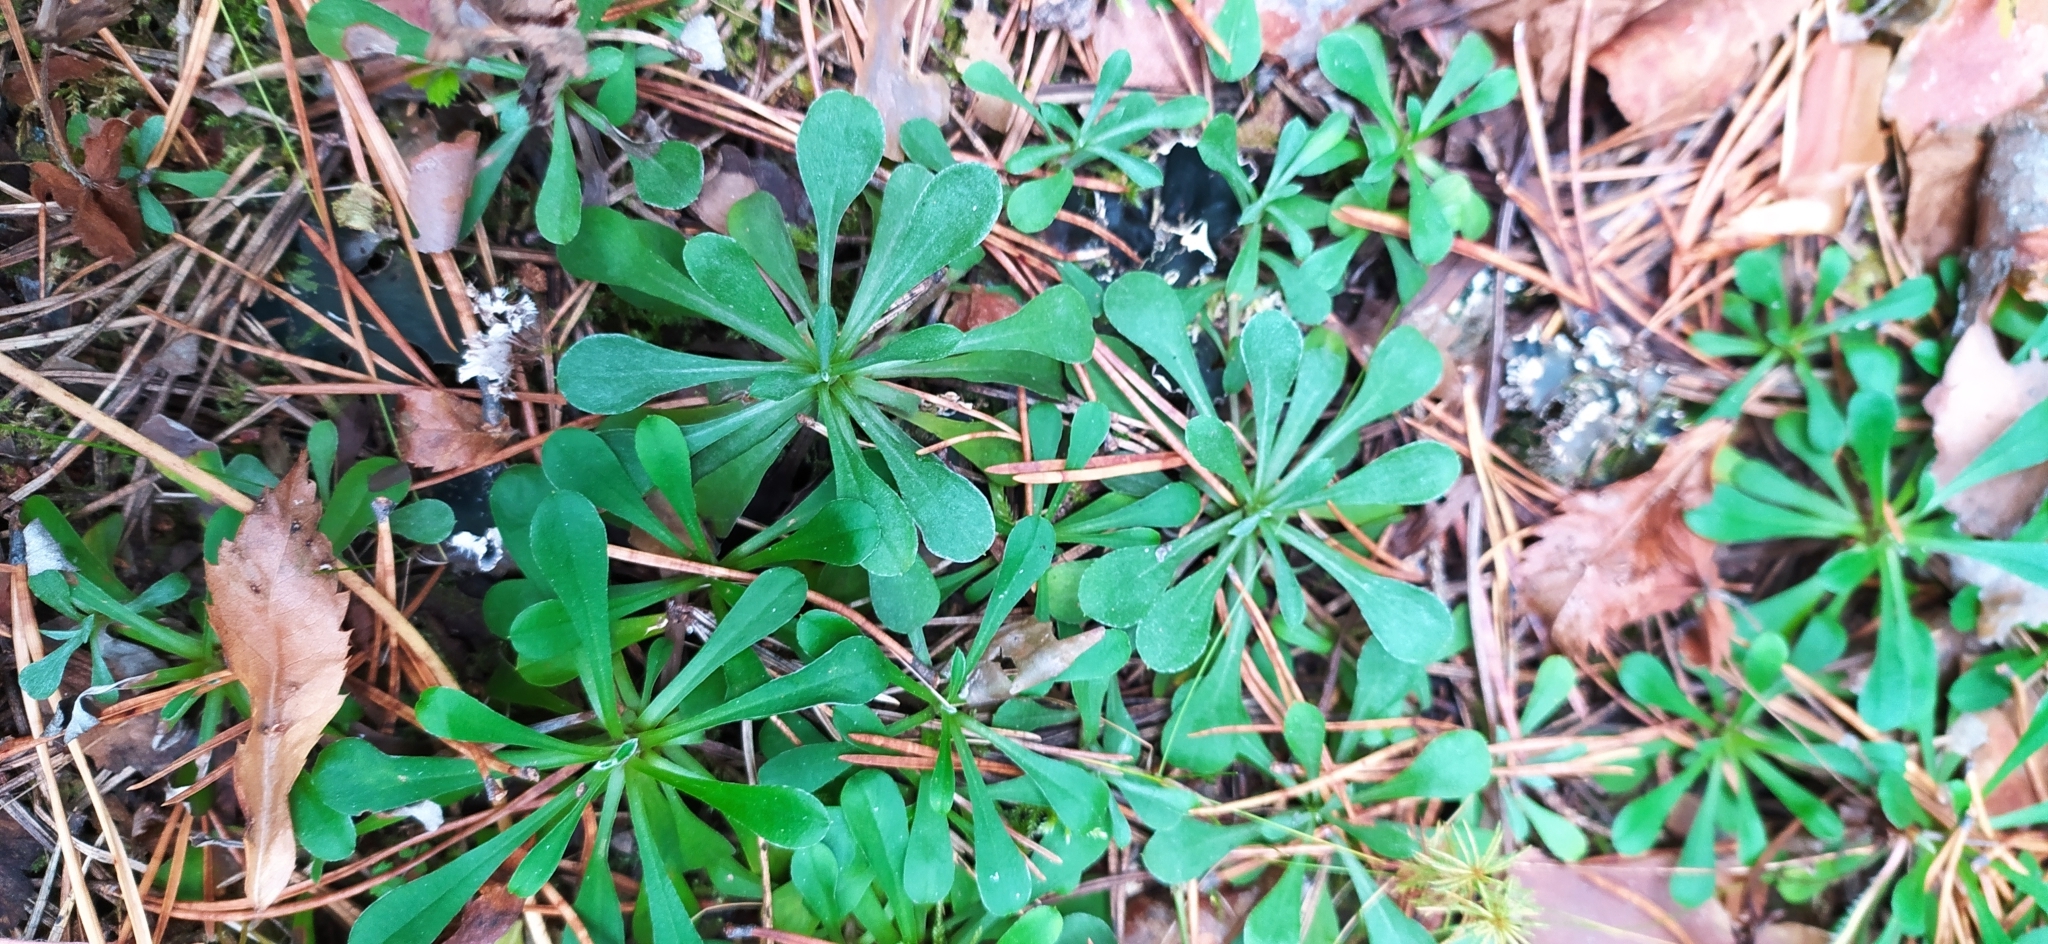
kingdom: Plantae
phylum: Tracheophyta
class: Magnoliopsida
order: Asterales
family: Asteraceae
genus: Antennaria
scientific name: Antennaria dioica
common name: Mountain everlasting
